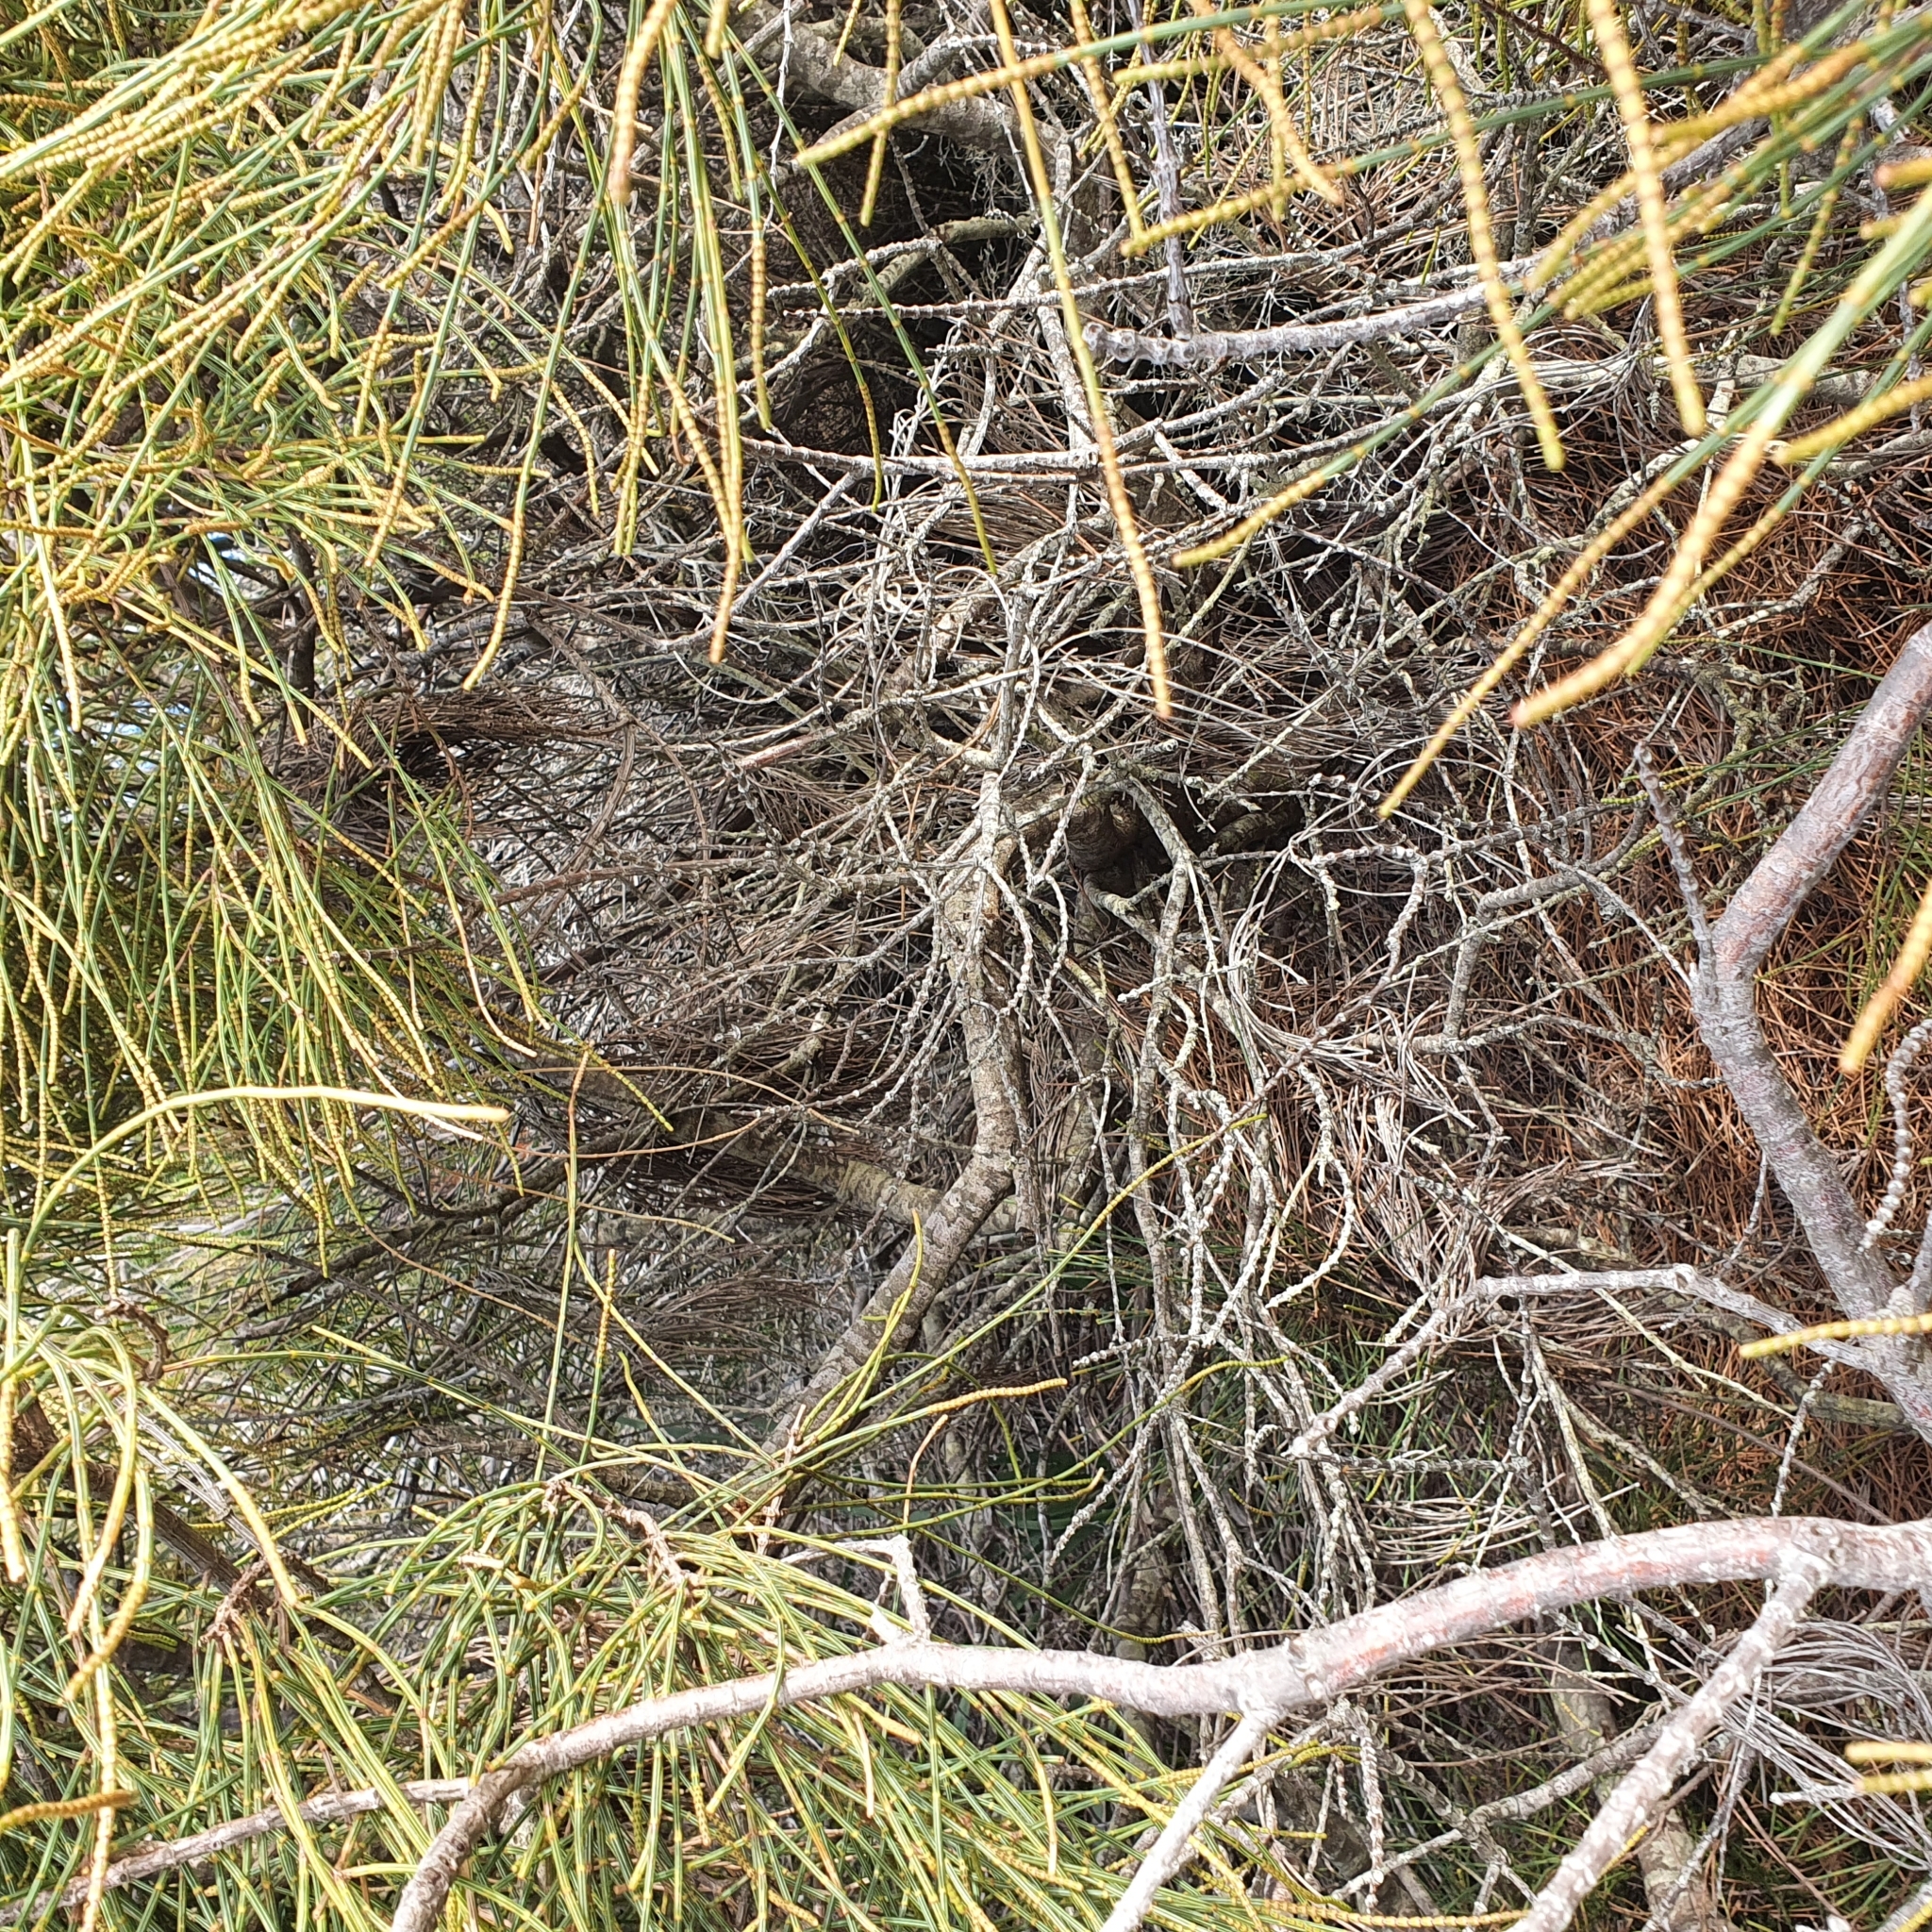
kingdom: Plantae
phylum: Tracheophyta
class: Magnoliopsida
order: Fagales
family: Casuarinaceae
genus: Allocasuarina
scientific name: Allocasuarina distyla
